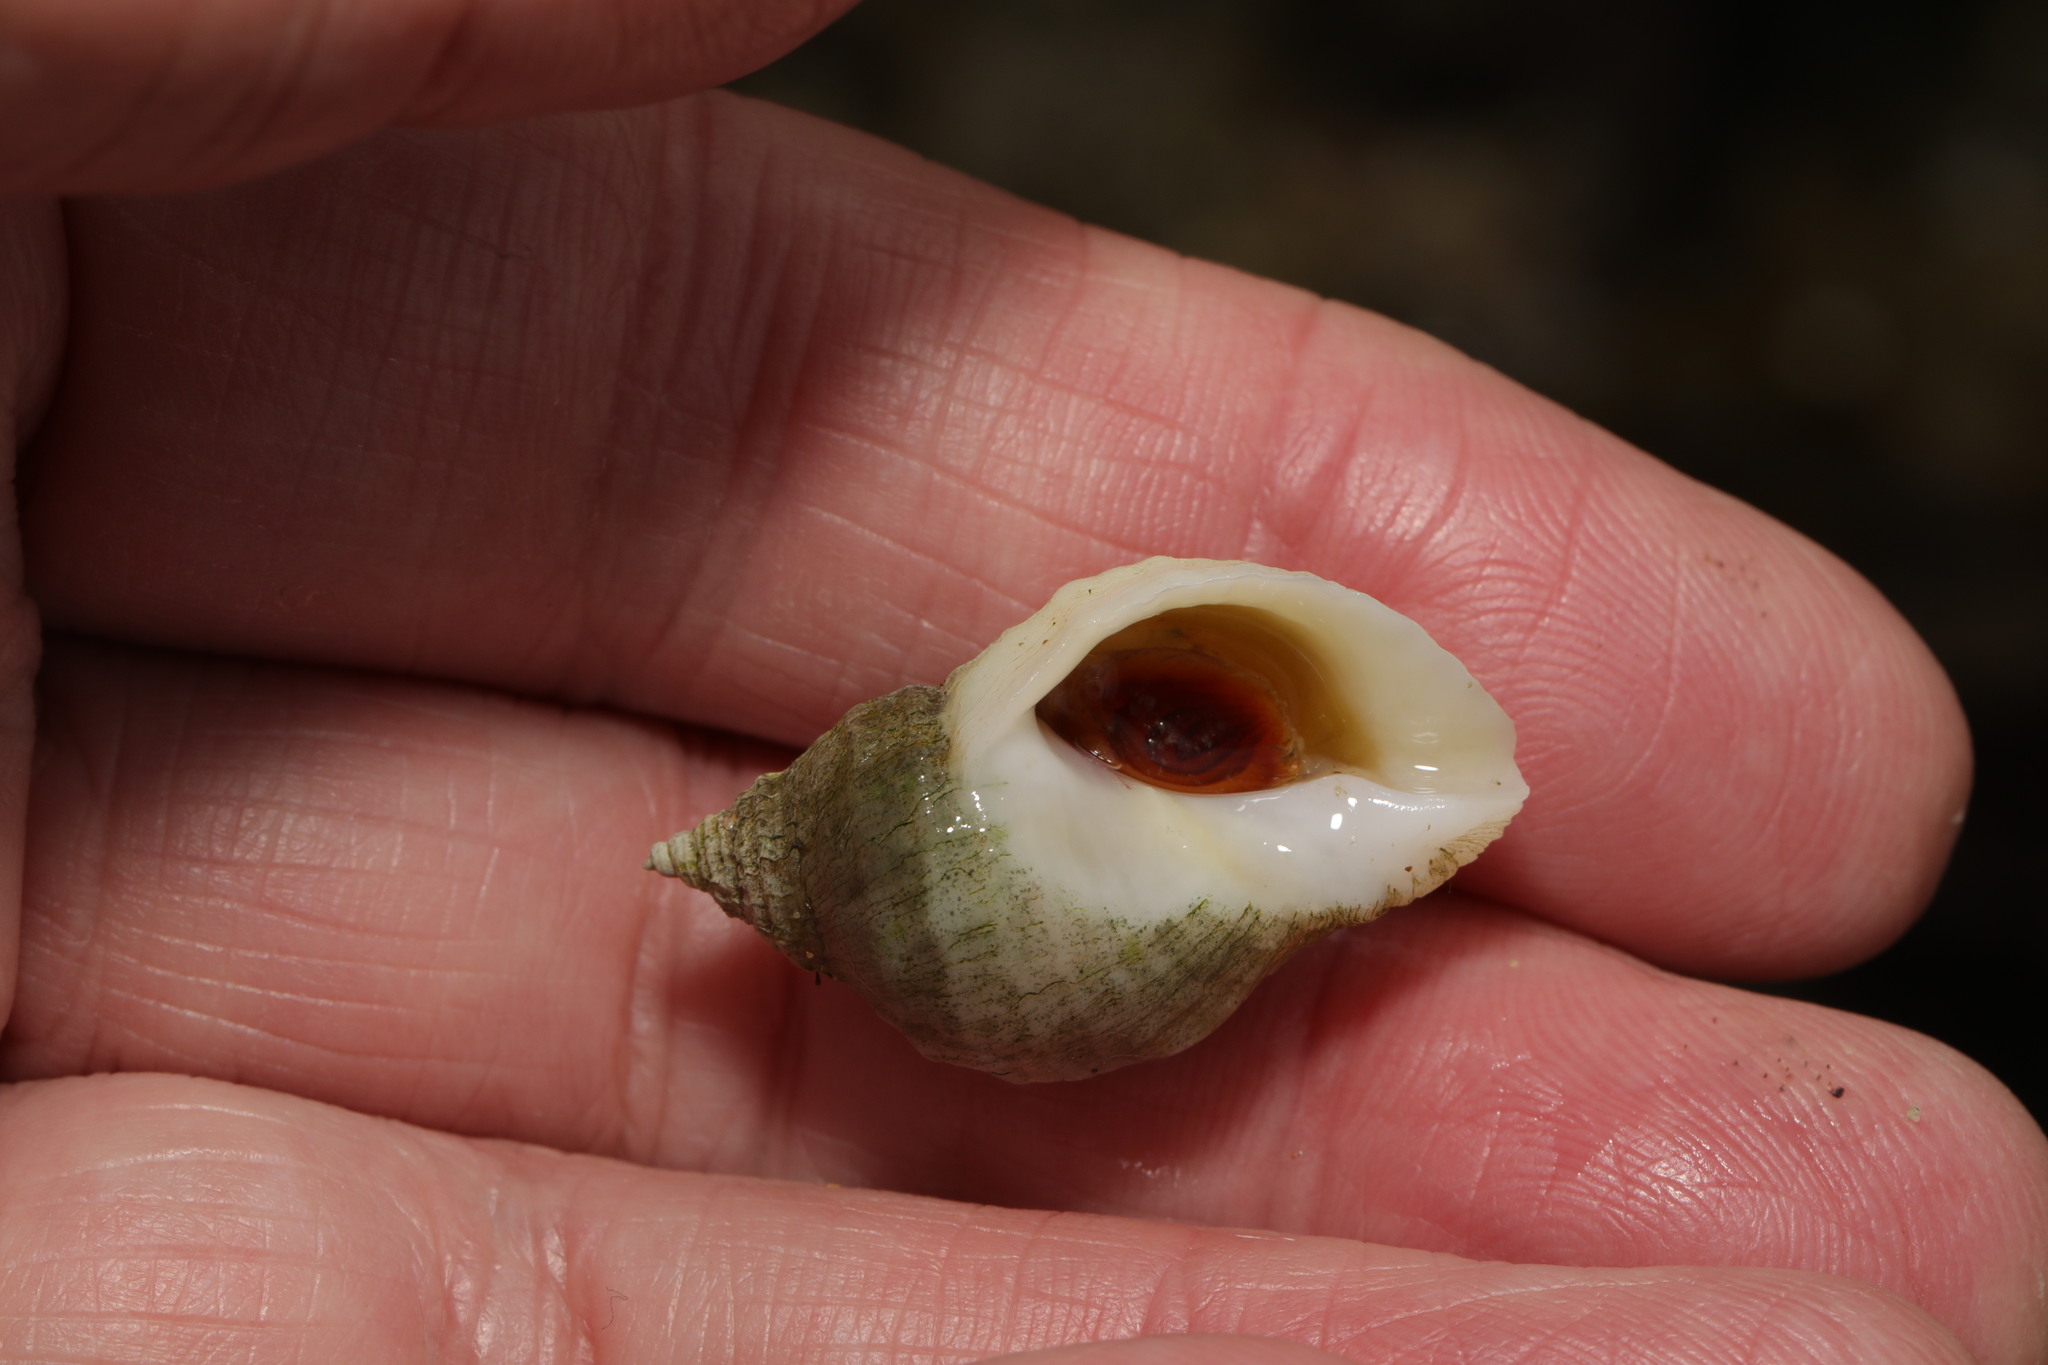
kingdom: Animalia
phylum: Mollusca
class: Gastropoda
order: Neogastropoda
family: Muricidae
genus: Nucella
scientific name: Nucella lapillus
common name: Dog whelk
